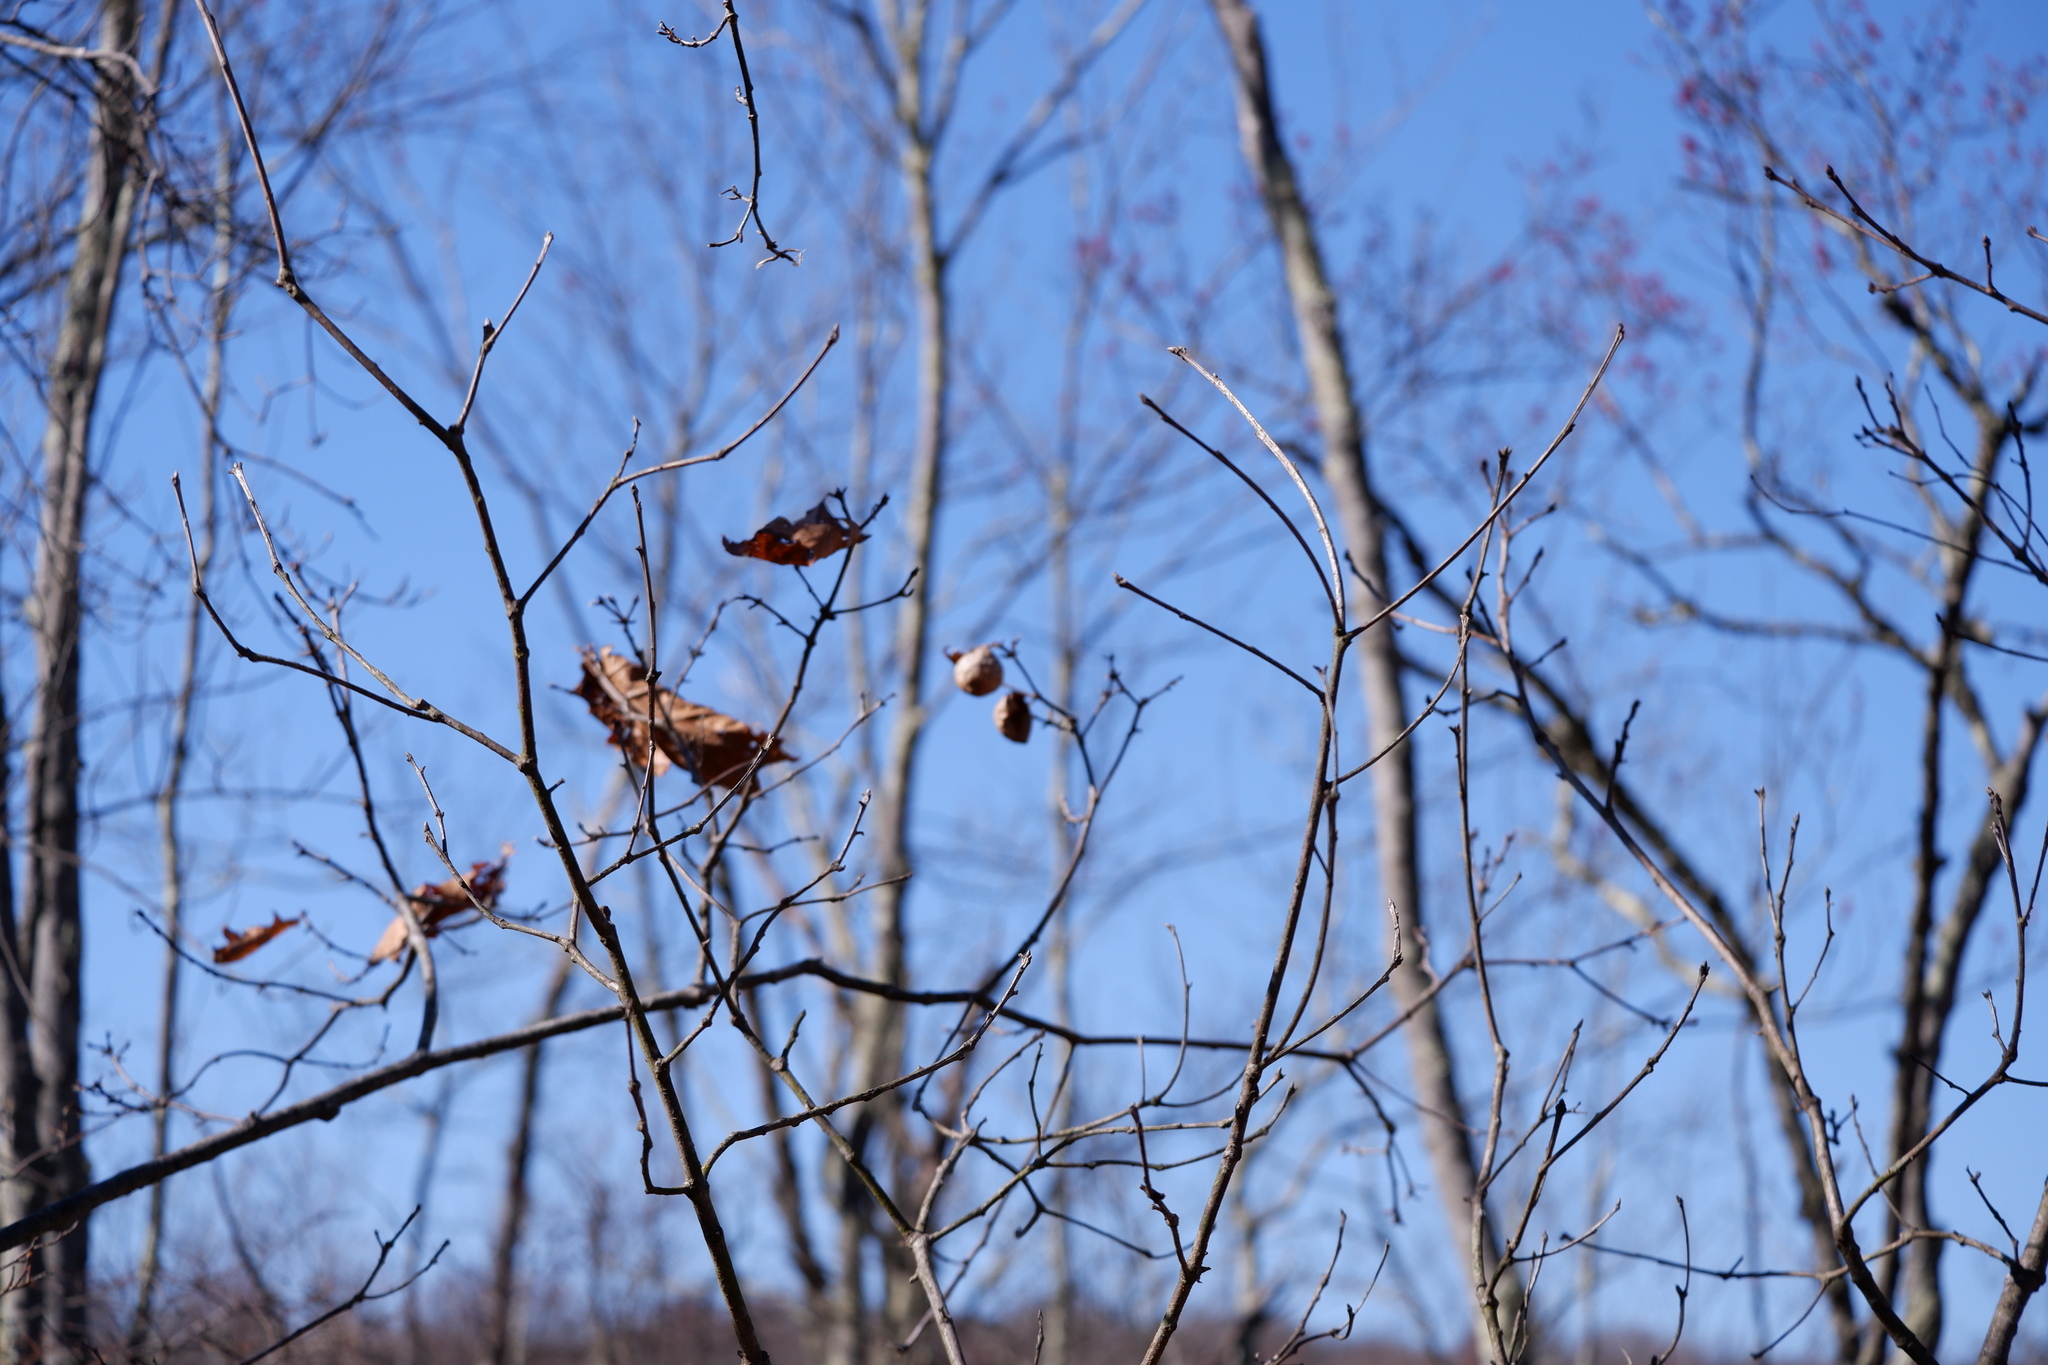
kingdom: Animalia
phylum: Arthropoda
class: Insecta
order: Hymenoptera
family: Cynipidae
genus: Amphibolips
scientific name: Amphibolips
